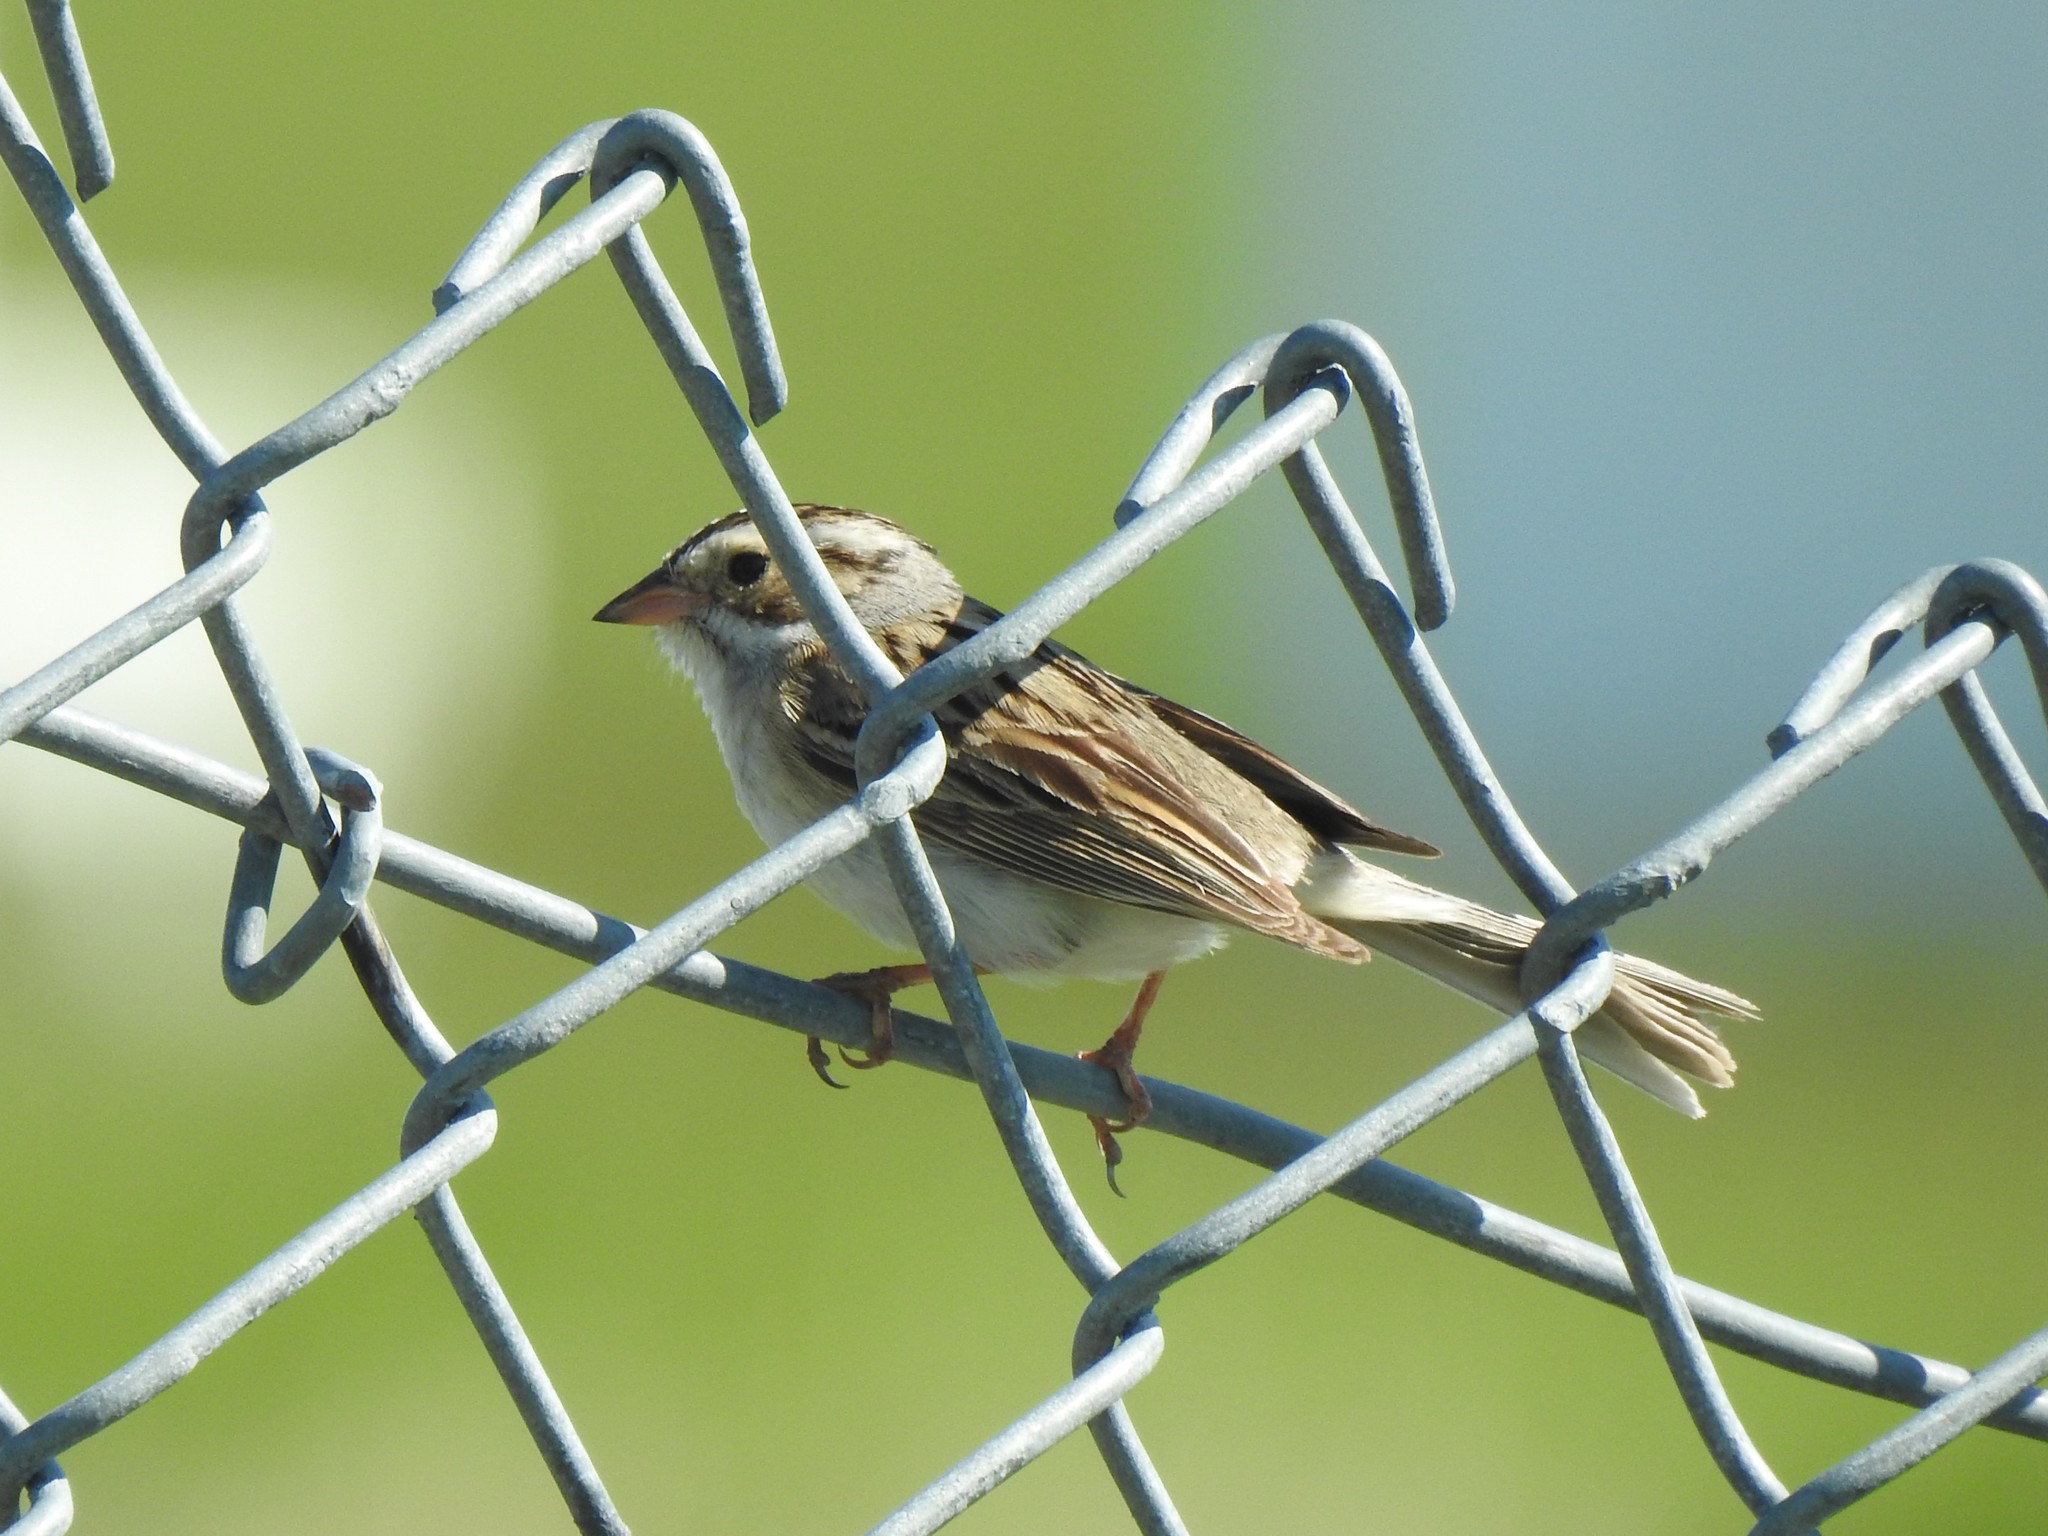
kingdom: Animalia
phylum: Chordata
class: Aves
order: Passeriformes
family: Passerellidae
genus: Spizella
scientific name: Spizella pallida
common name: Clay-colored sparrow
